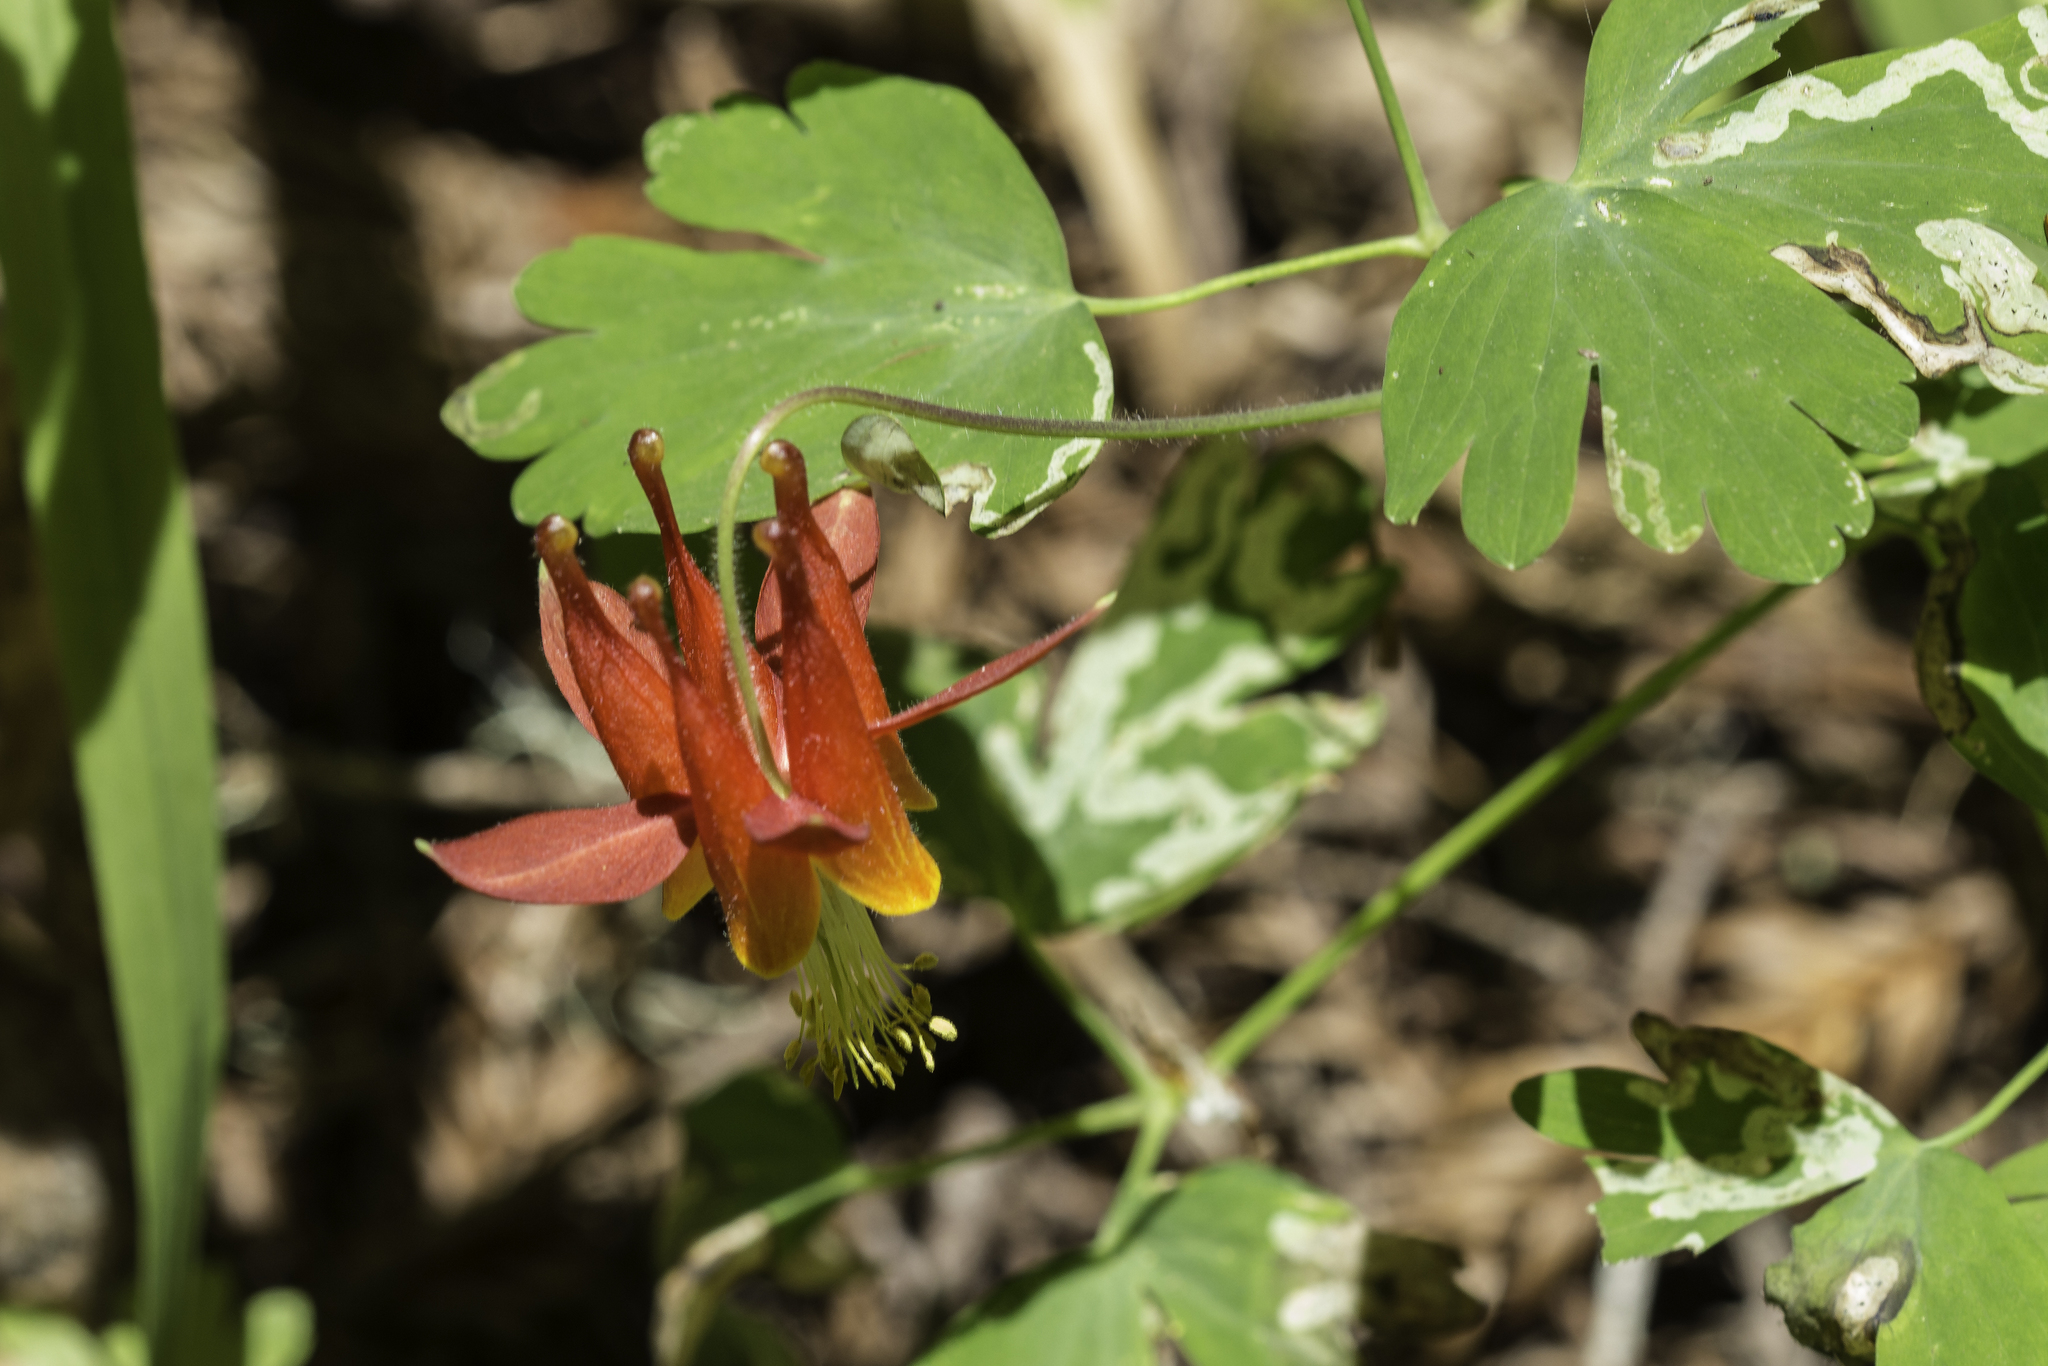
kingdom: Plantae
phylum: Tracheophyta
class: Magnoliopsida
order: Ranunculales
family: Ranunculaceae
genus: Aquilegia
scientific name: Aquilegia formosa
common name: Sitka columbine
